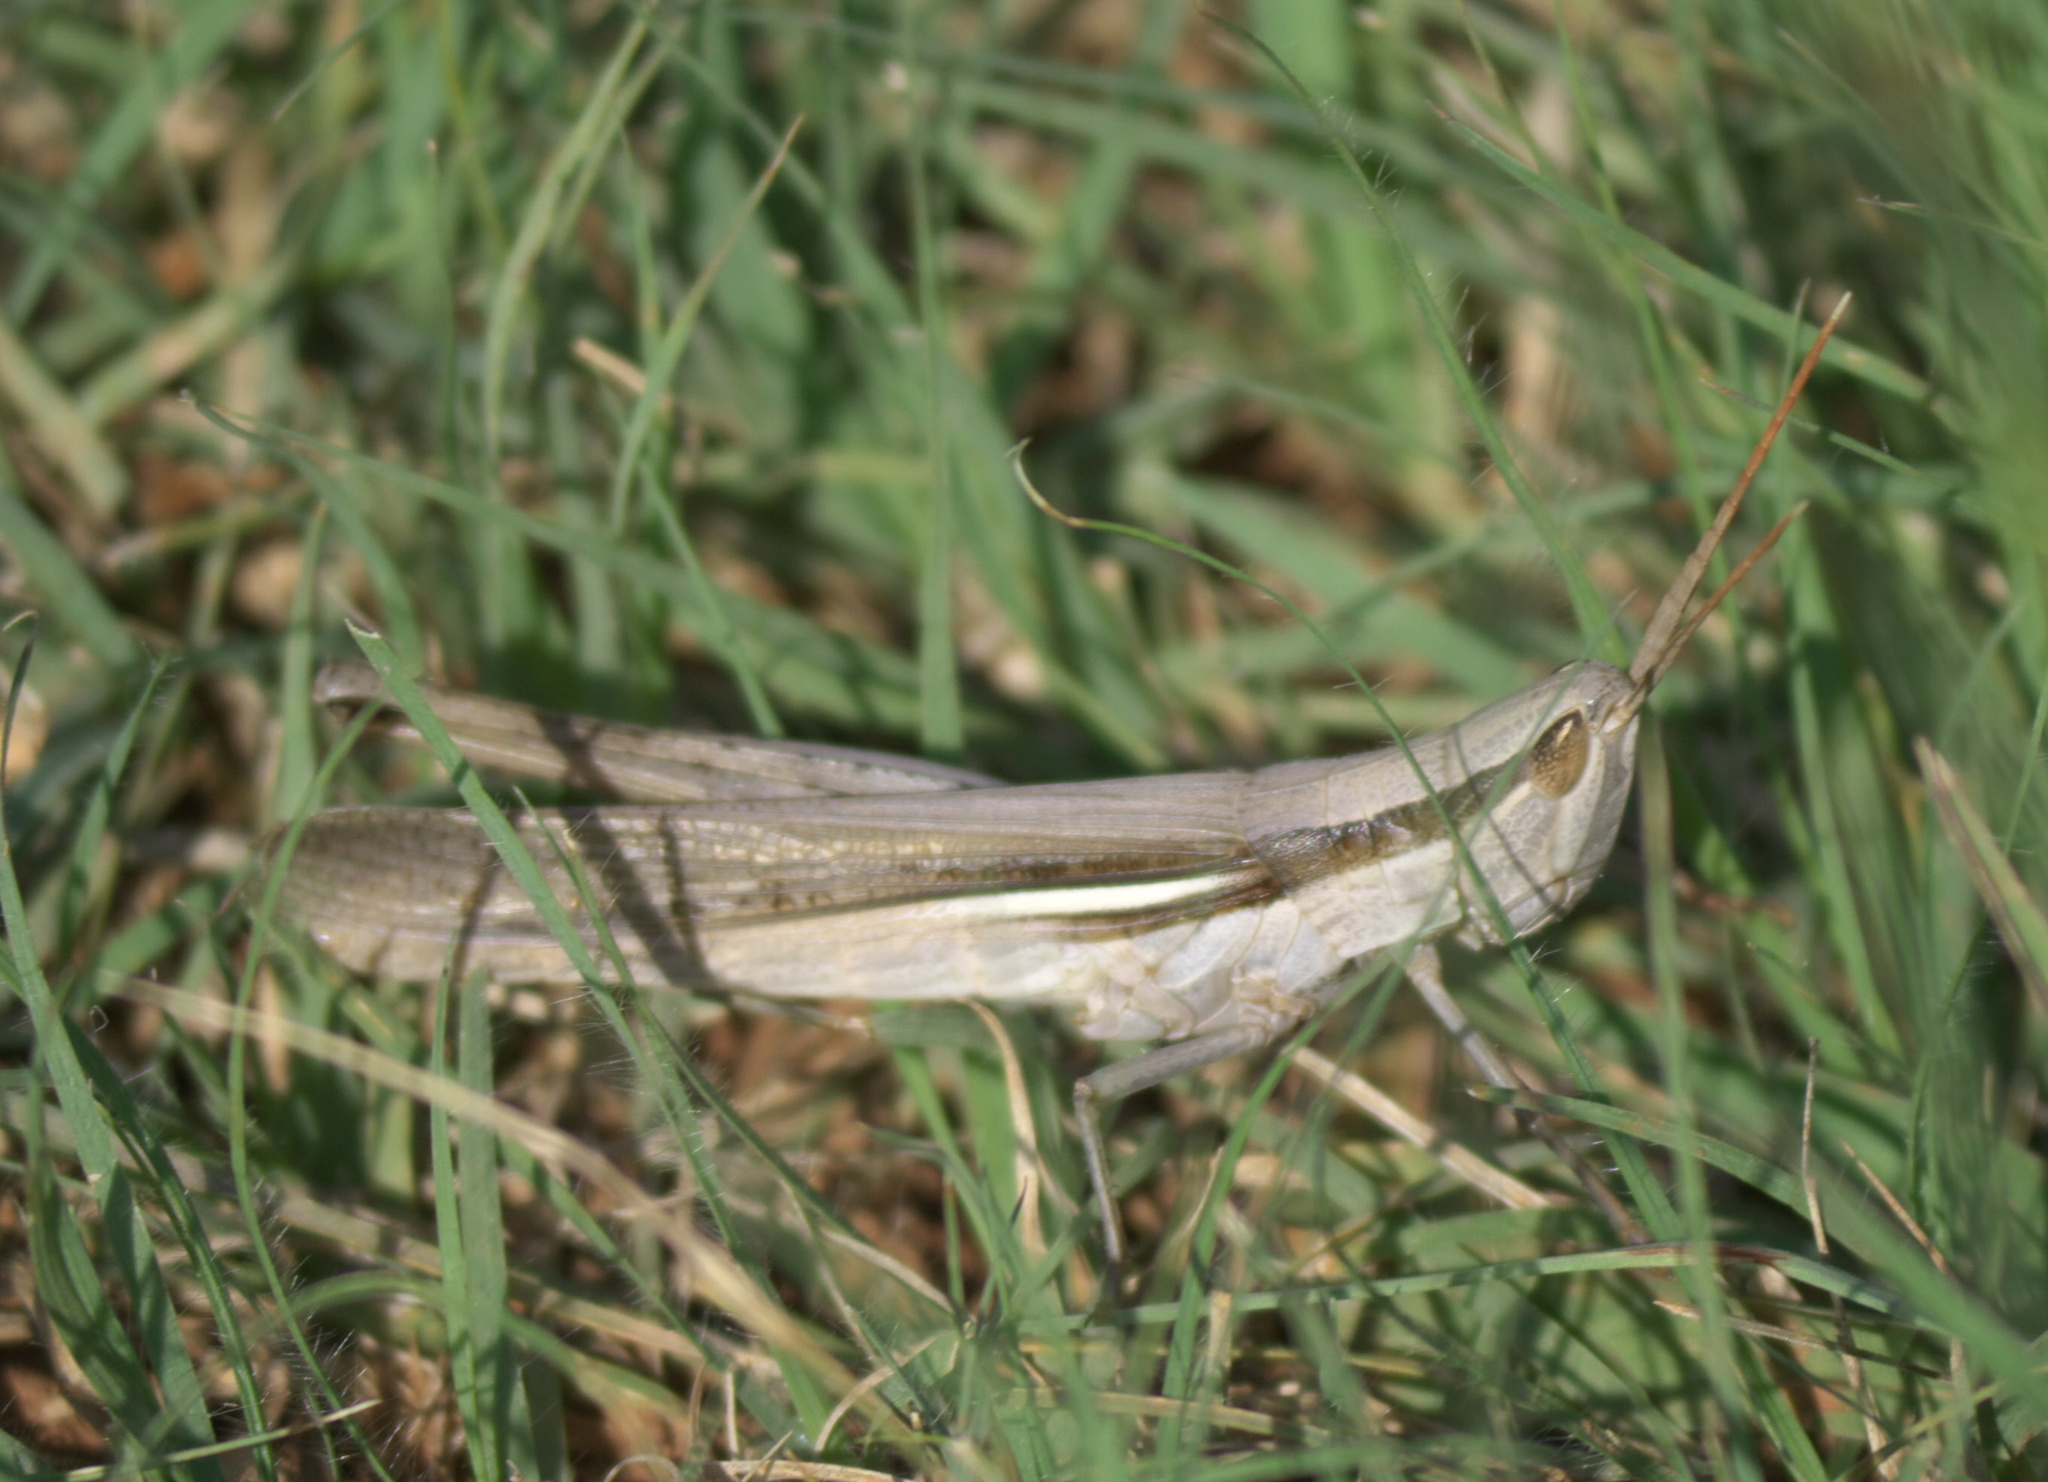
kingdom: Animalia
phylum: Arthropoda
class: Insecta
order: Orthoptera
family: Acrididae
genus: Mermiria
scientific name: Mermiria bivittata
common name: Two-striped mermiria grasshopper
